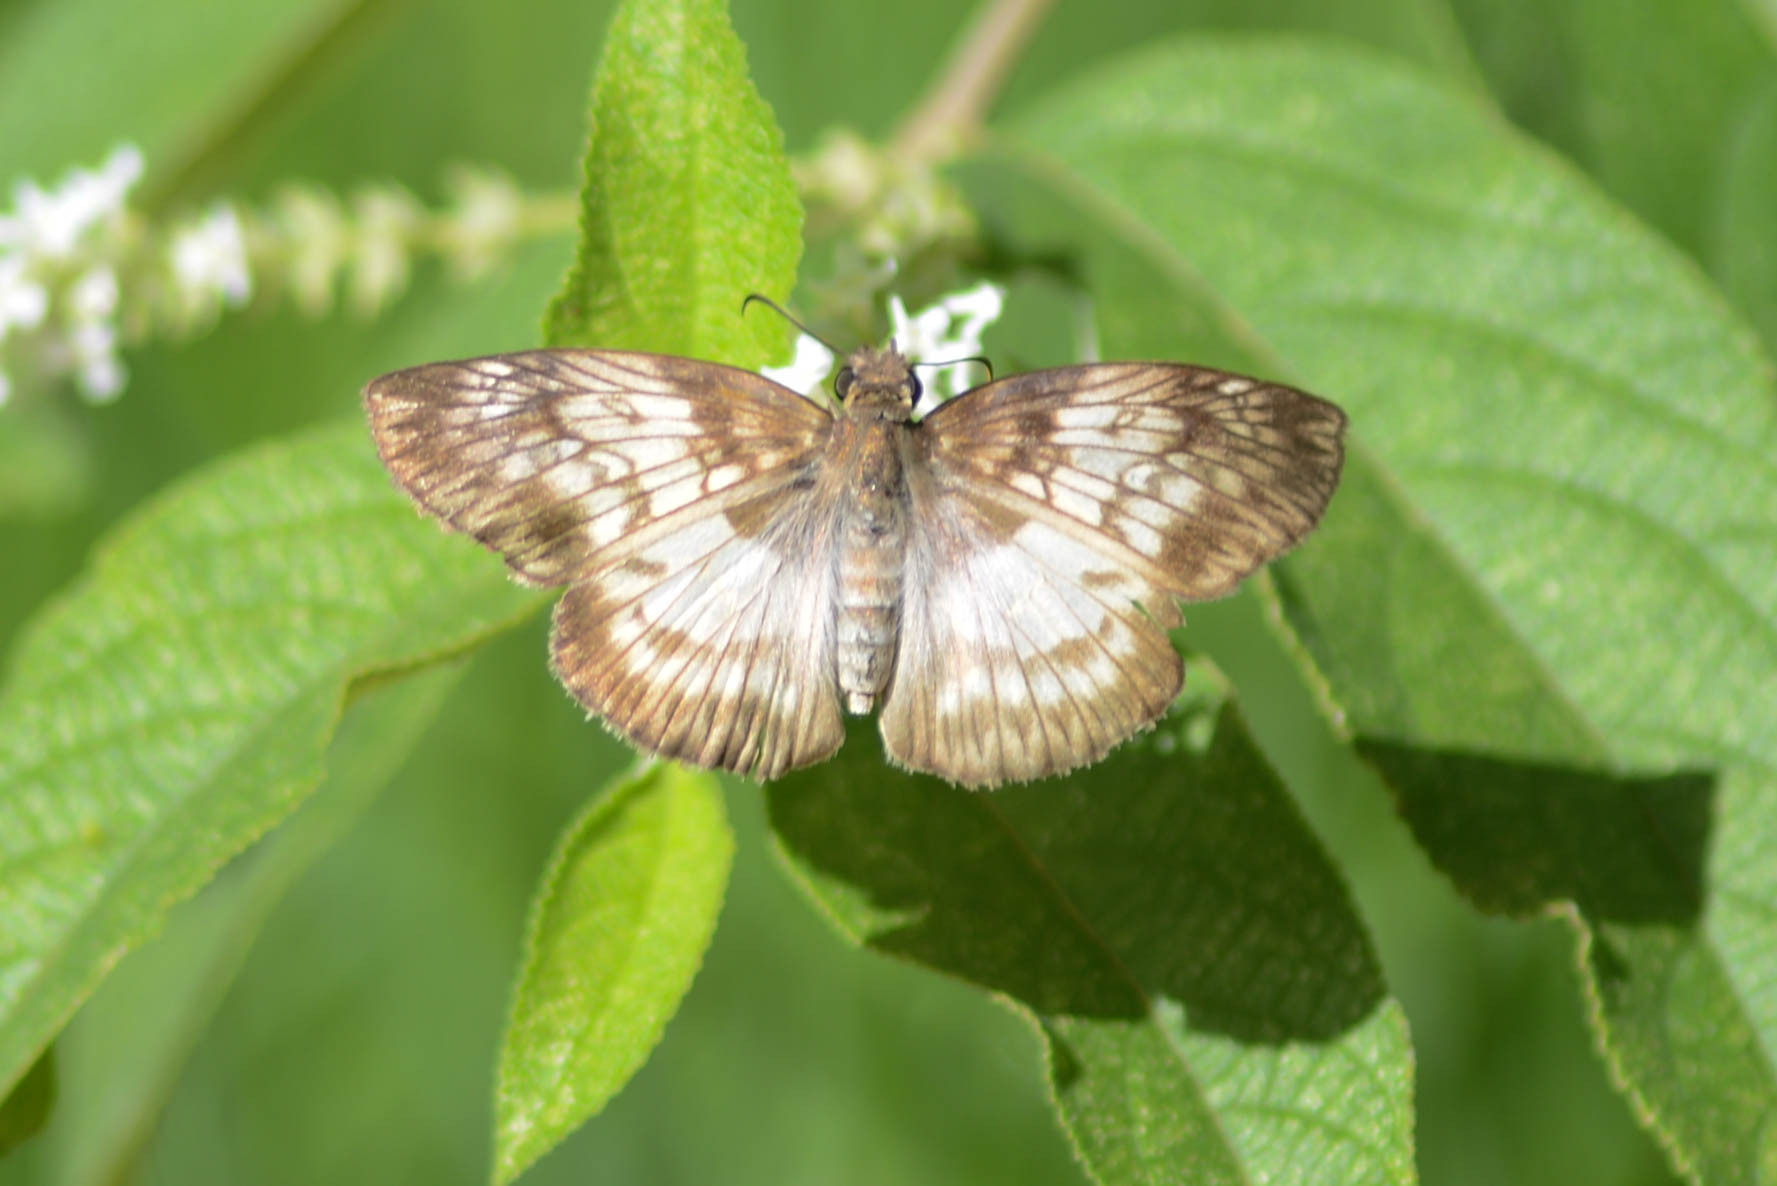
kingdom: Animalia
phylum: Arthropoda
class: Insecta
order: Lepidoptera
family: Hesperiidae
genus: Mylon
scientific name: Mylon maimon
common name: Common mylon
